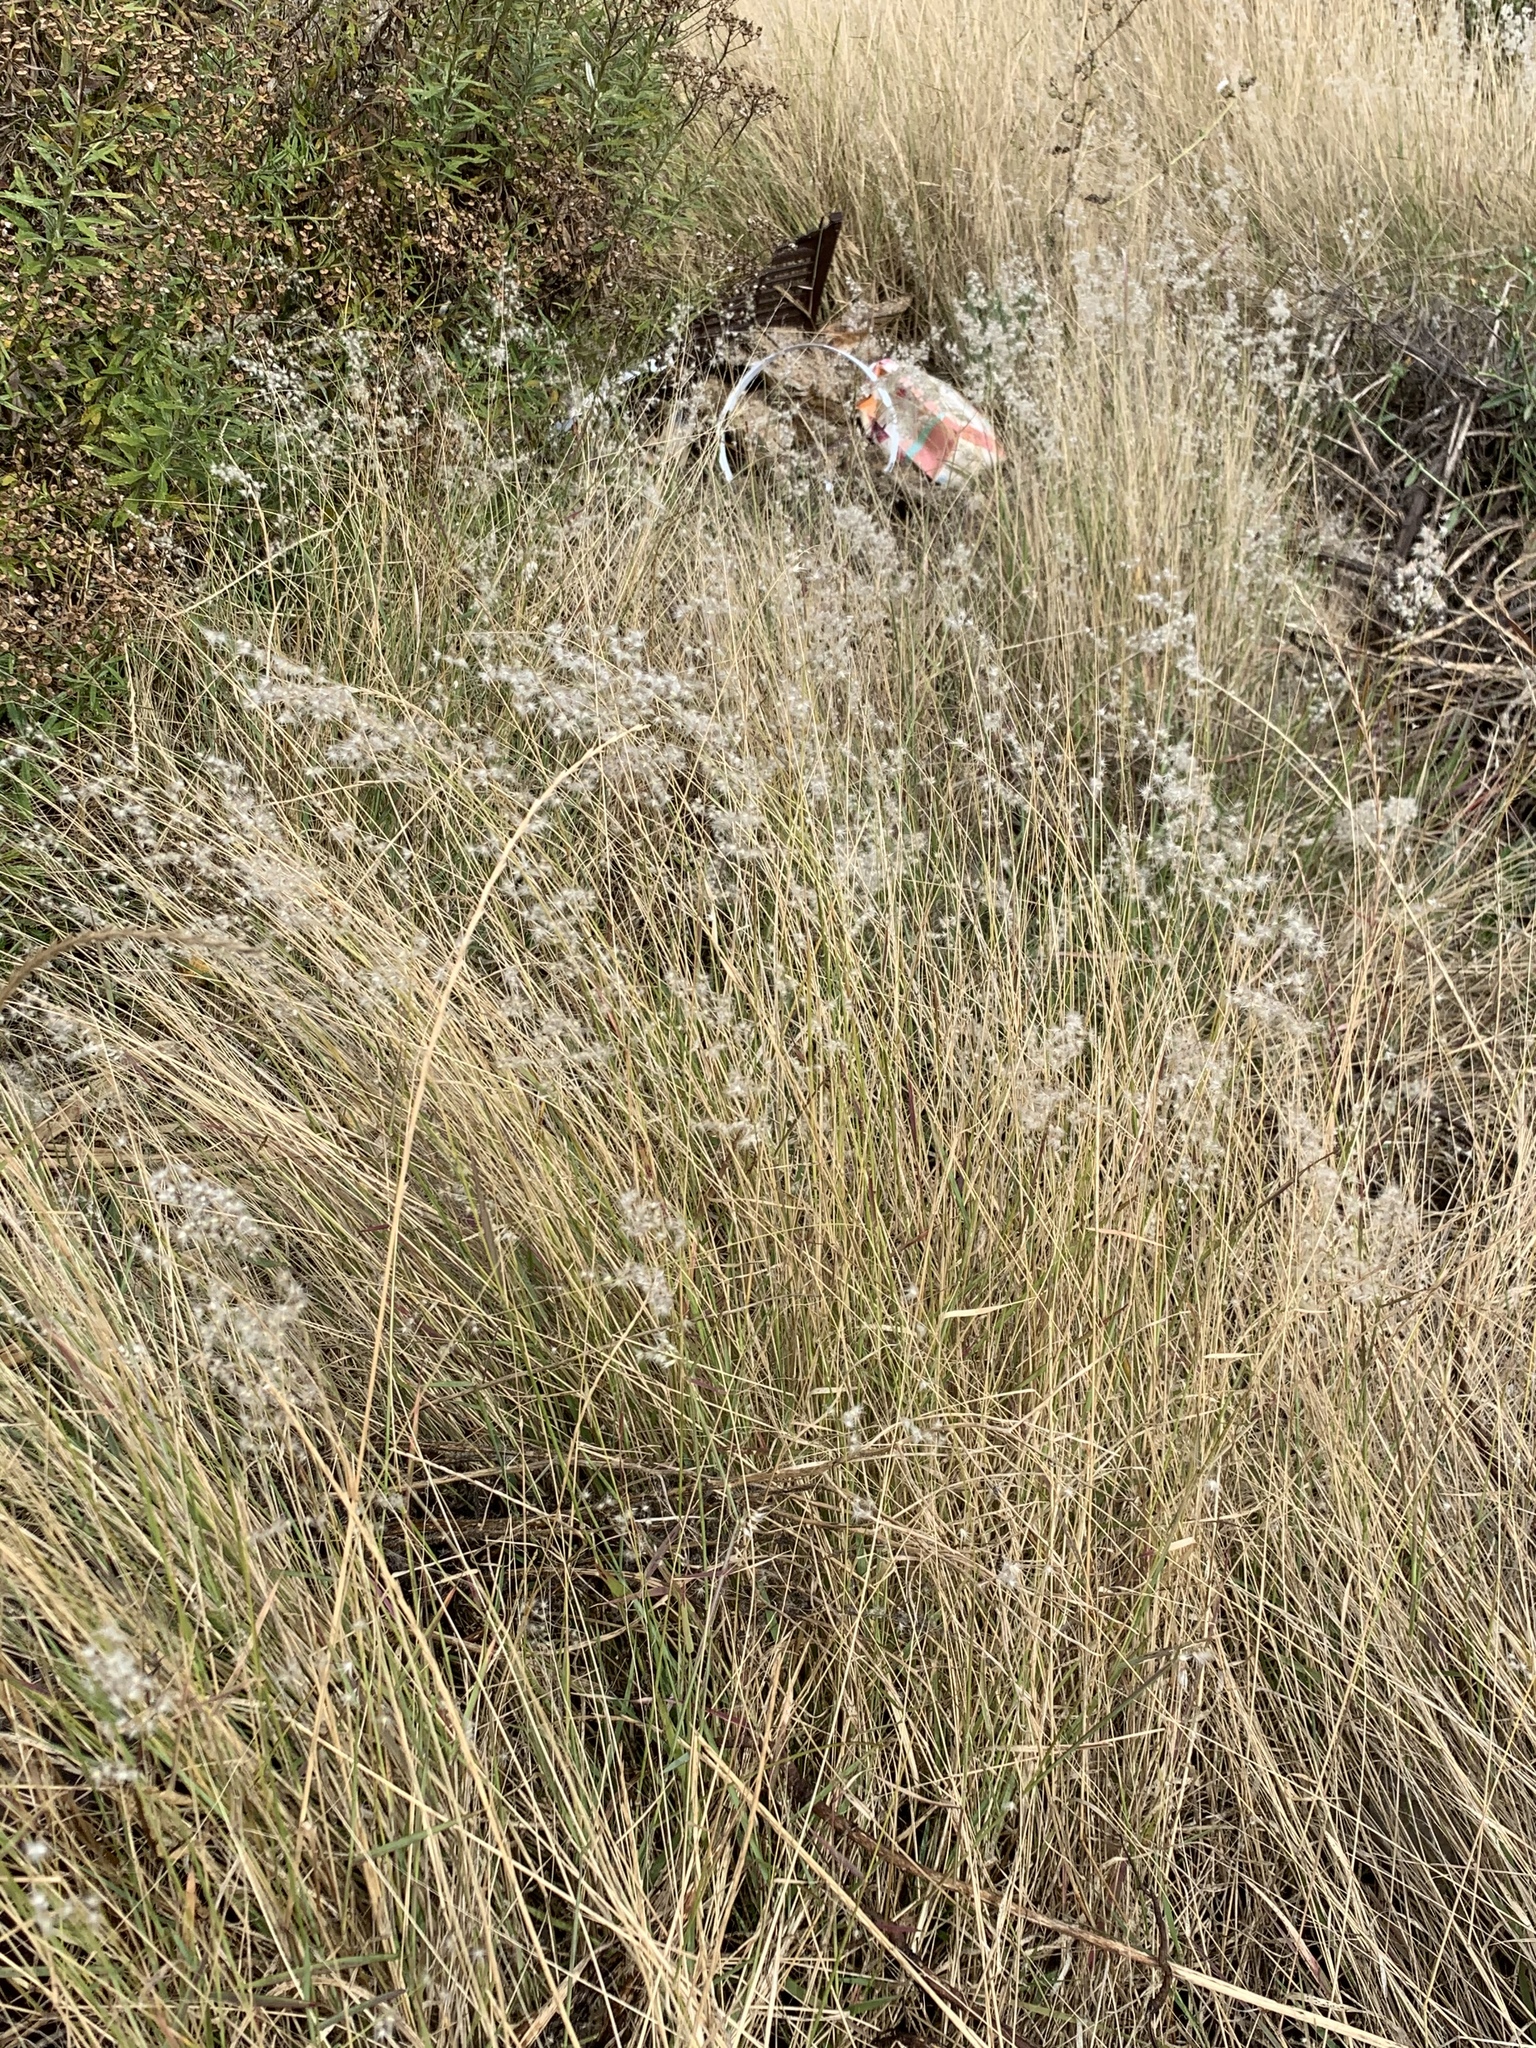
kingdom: Plantae
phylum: Tracheophyta
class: Liliopsida
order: Poales
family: Poaceae
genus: Melinis
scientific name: Melinis repens
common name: Rose natal grass
